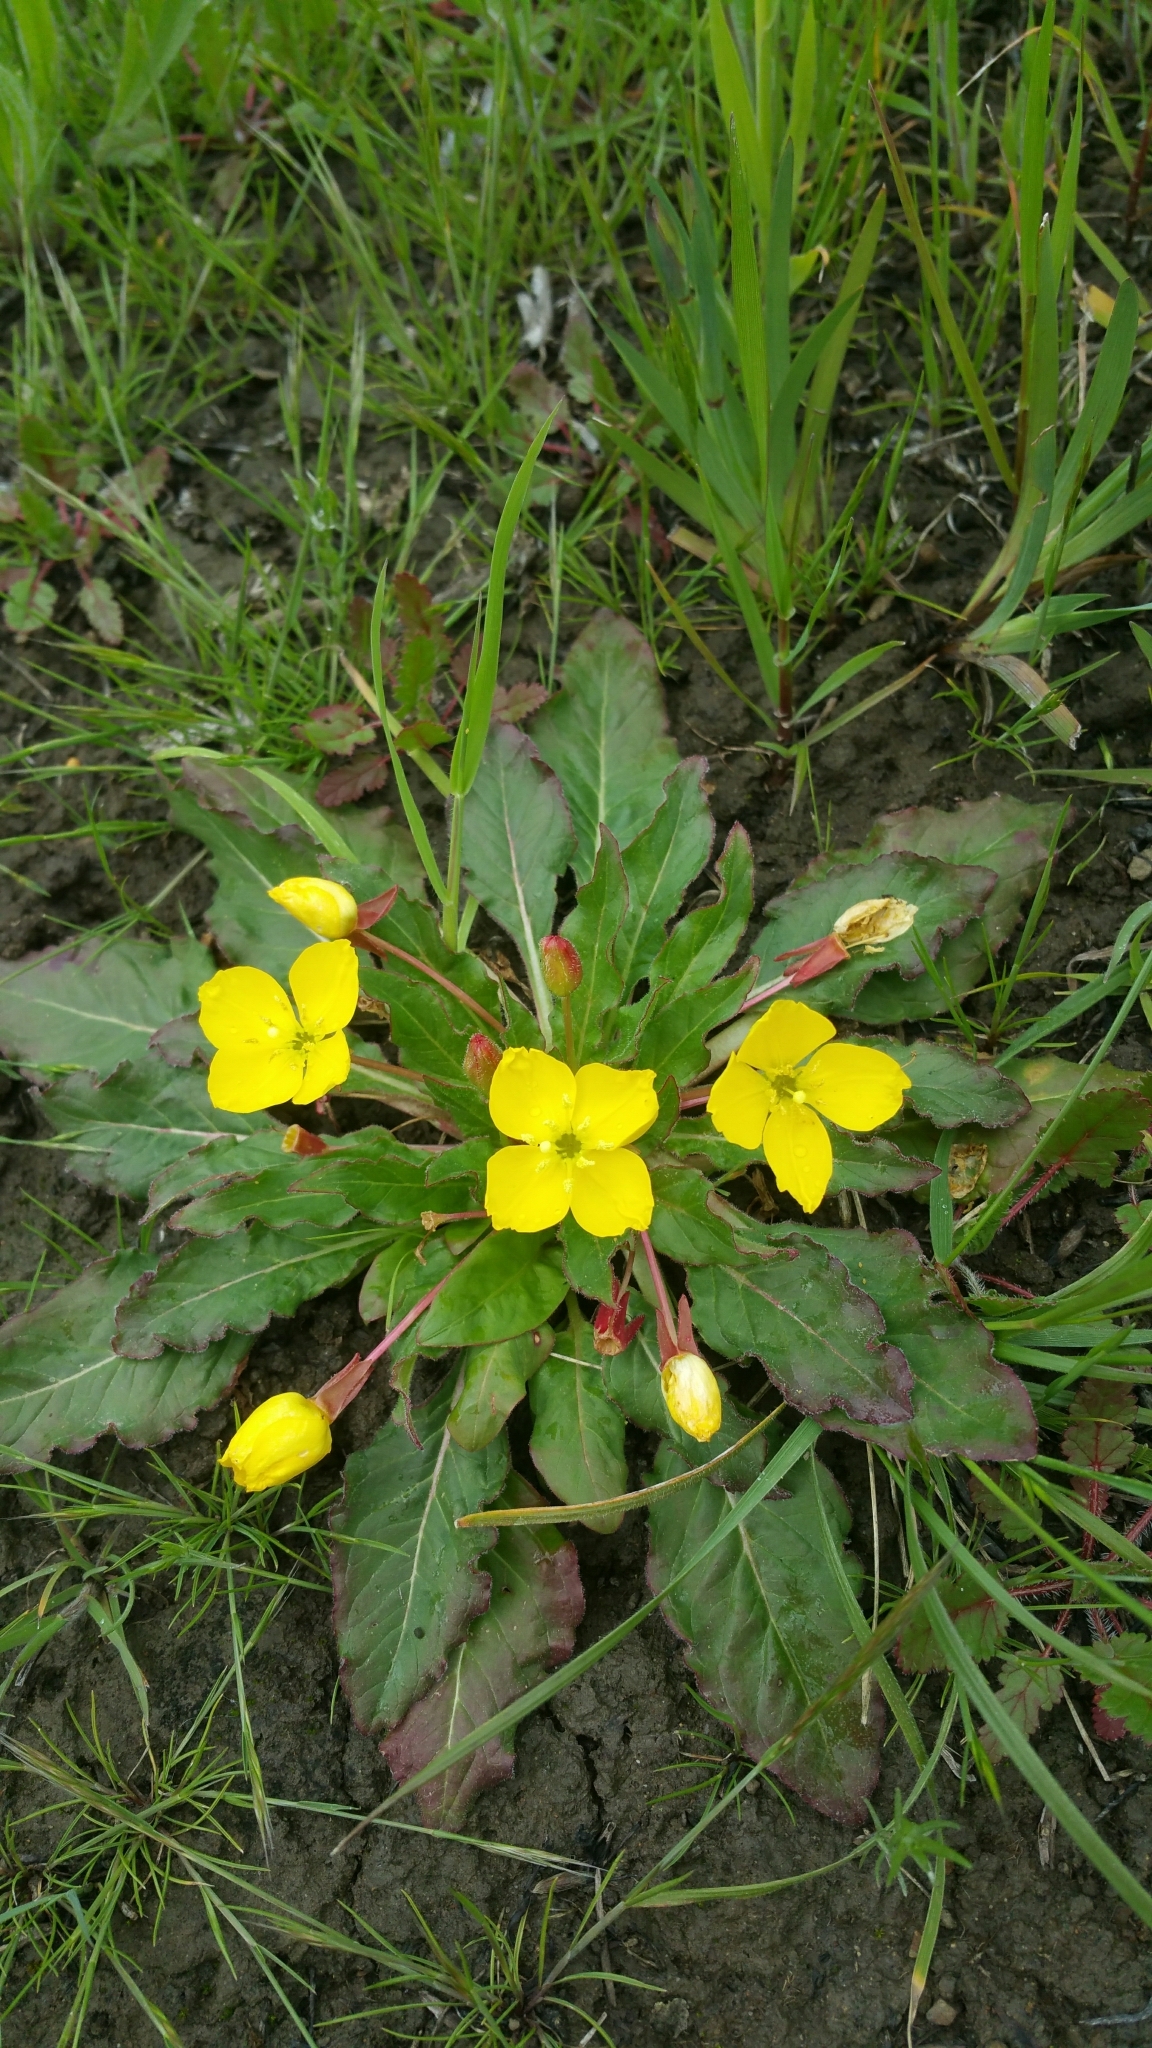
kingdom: Plantae
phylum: Tracheophyta
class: Magnoliopsida
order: Myrtales
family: Onagraceae
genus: Taraxia
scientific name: Taraxia ovata
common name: Goldeneggs
